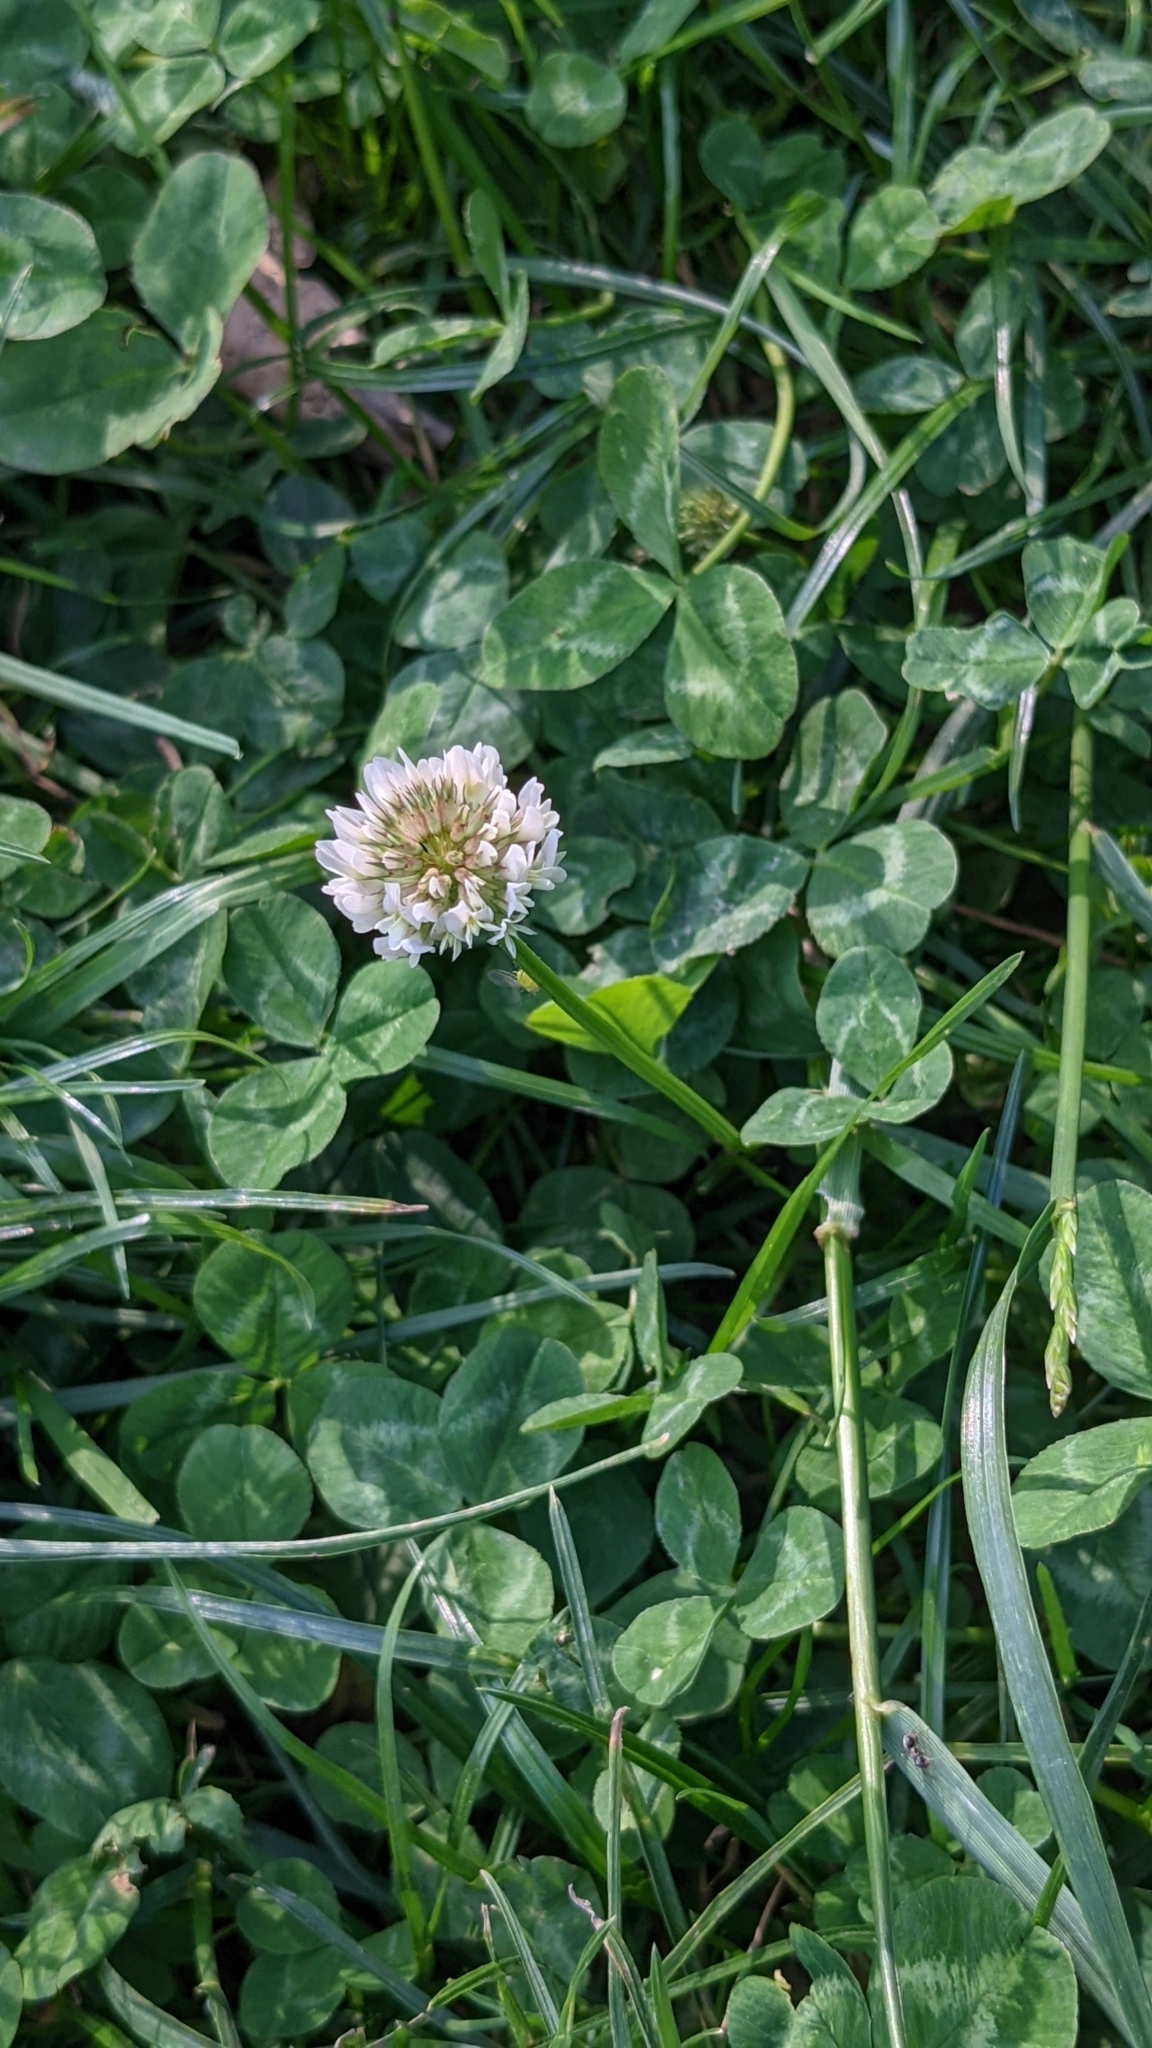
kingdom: Plantae
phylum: Tracheophyta
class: Magnoliopsida
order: Fabales
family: Fabaceae
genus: Trifolium
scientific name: Trifolium repens
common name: White clover
